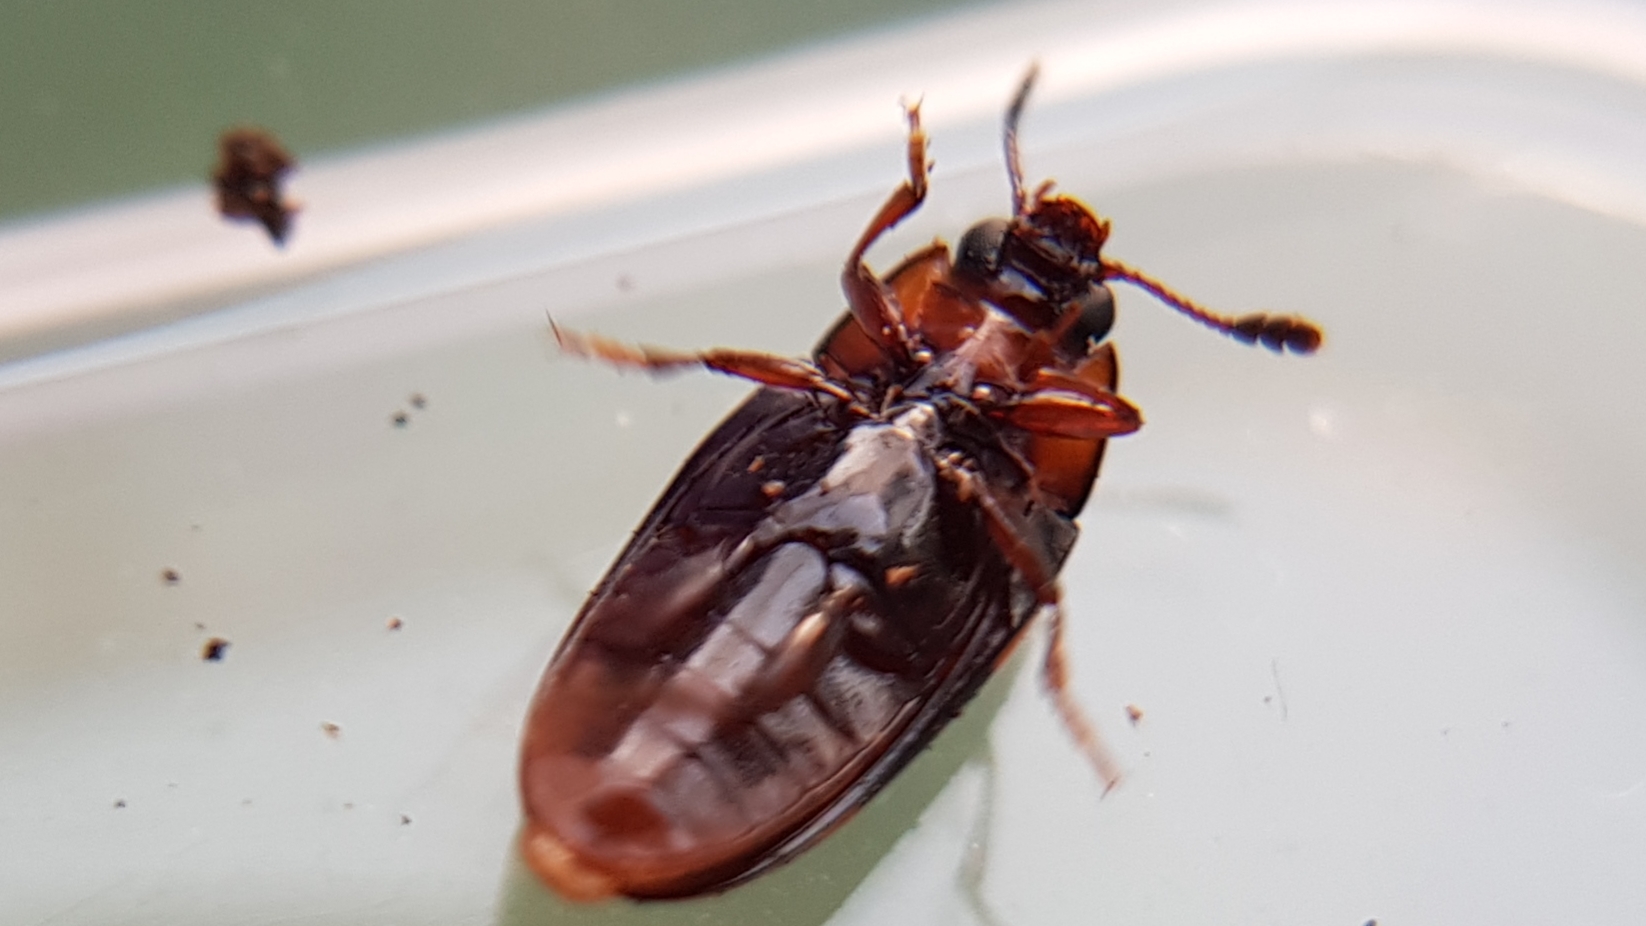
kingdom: Animalia
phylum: Arthropoda
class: Insecta
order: Coleoptera
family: Erotylidae
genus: Episcapha
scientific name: Episcapha flavofasciata
